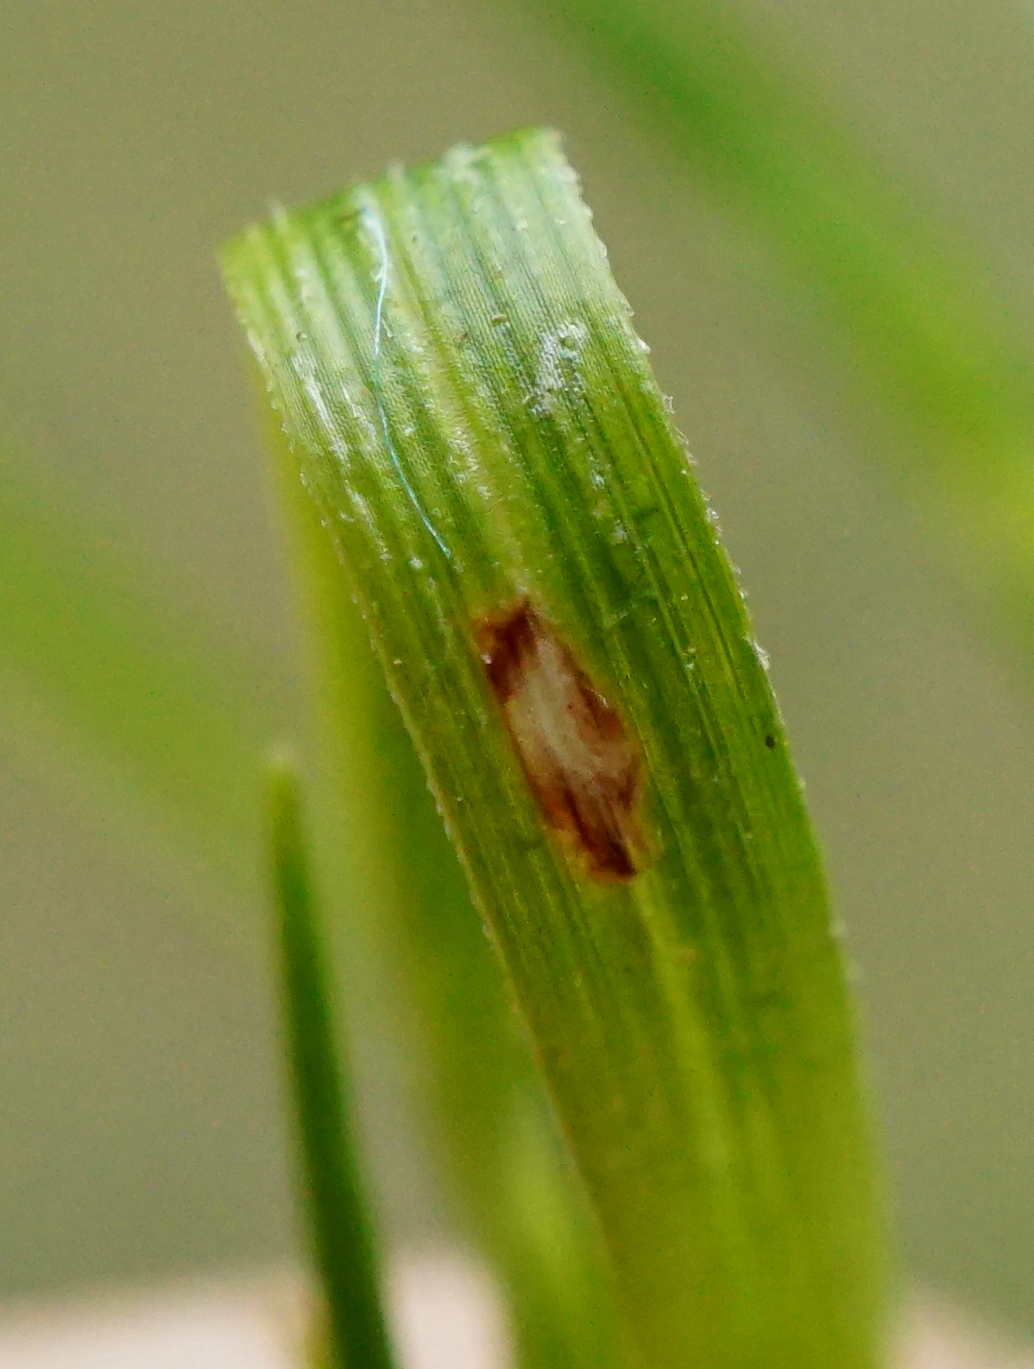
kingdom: Plantae
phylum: Tracheophyta
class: Liliopsida
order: Poales
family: Cyperaceae
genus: Carex
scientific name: Carex montana
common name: Soft-leaved sedge
